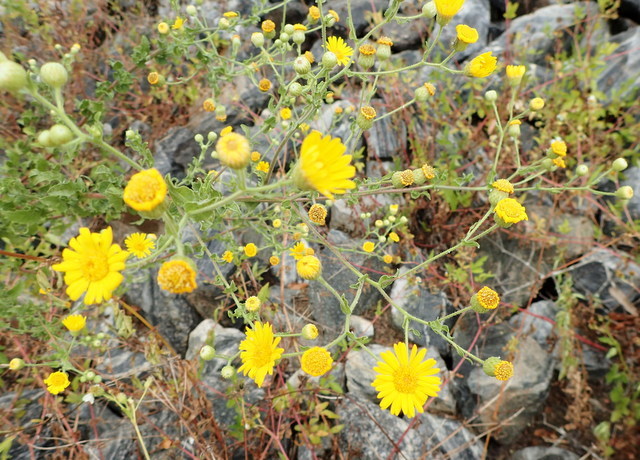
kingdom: Plantae
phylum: Tracheophyta
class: Magnoliopsida
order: Asterales
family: Asteraceae
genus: Heterotheca
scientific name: Heterotheca subaxillaris
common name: Camphorweed
